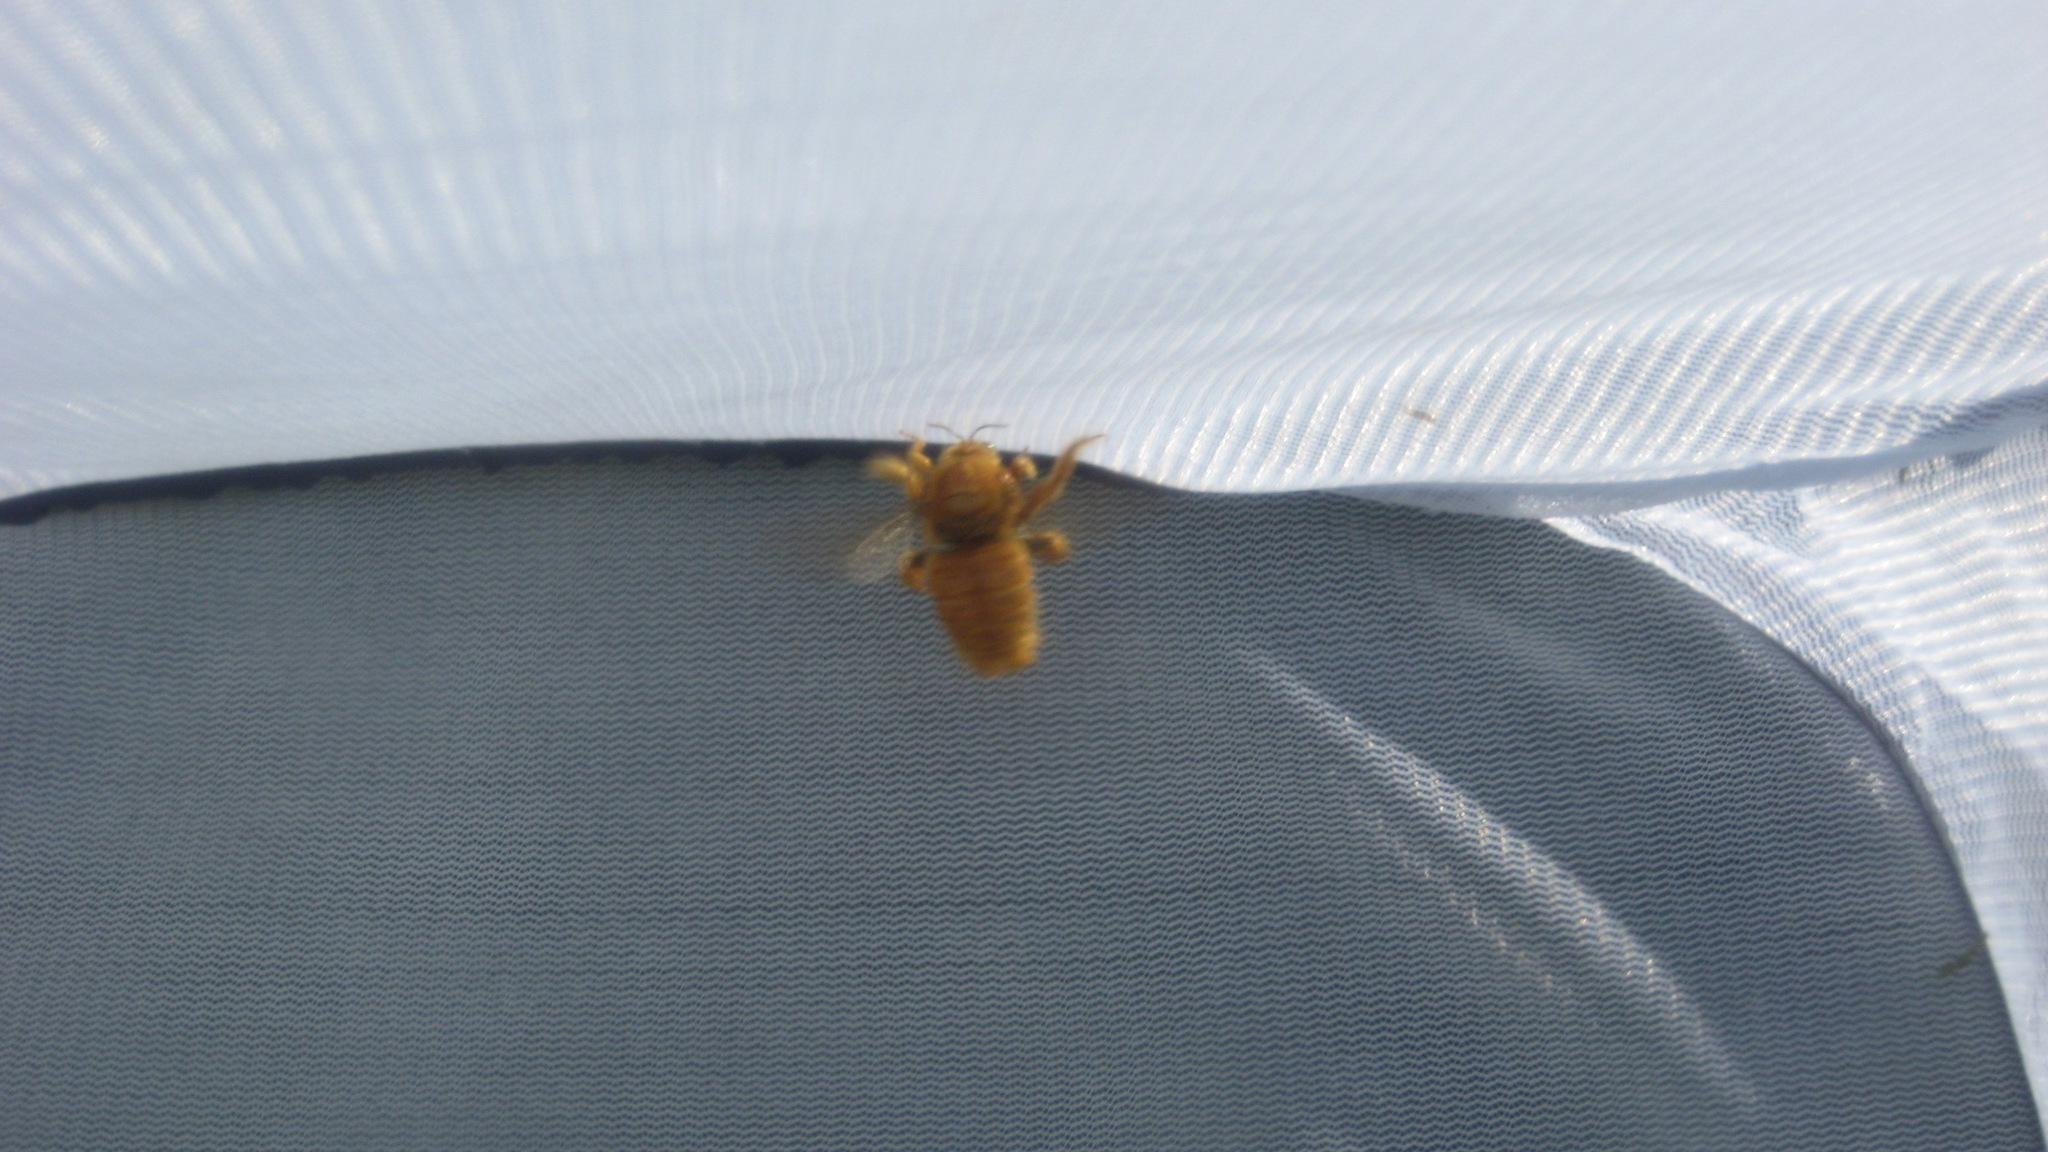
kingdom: Animalia
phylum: Arthropoda
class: Insecta
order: Hymenoptera
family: Apidae
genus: Xylocopa
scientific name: Xylocopa sonorina
